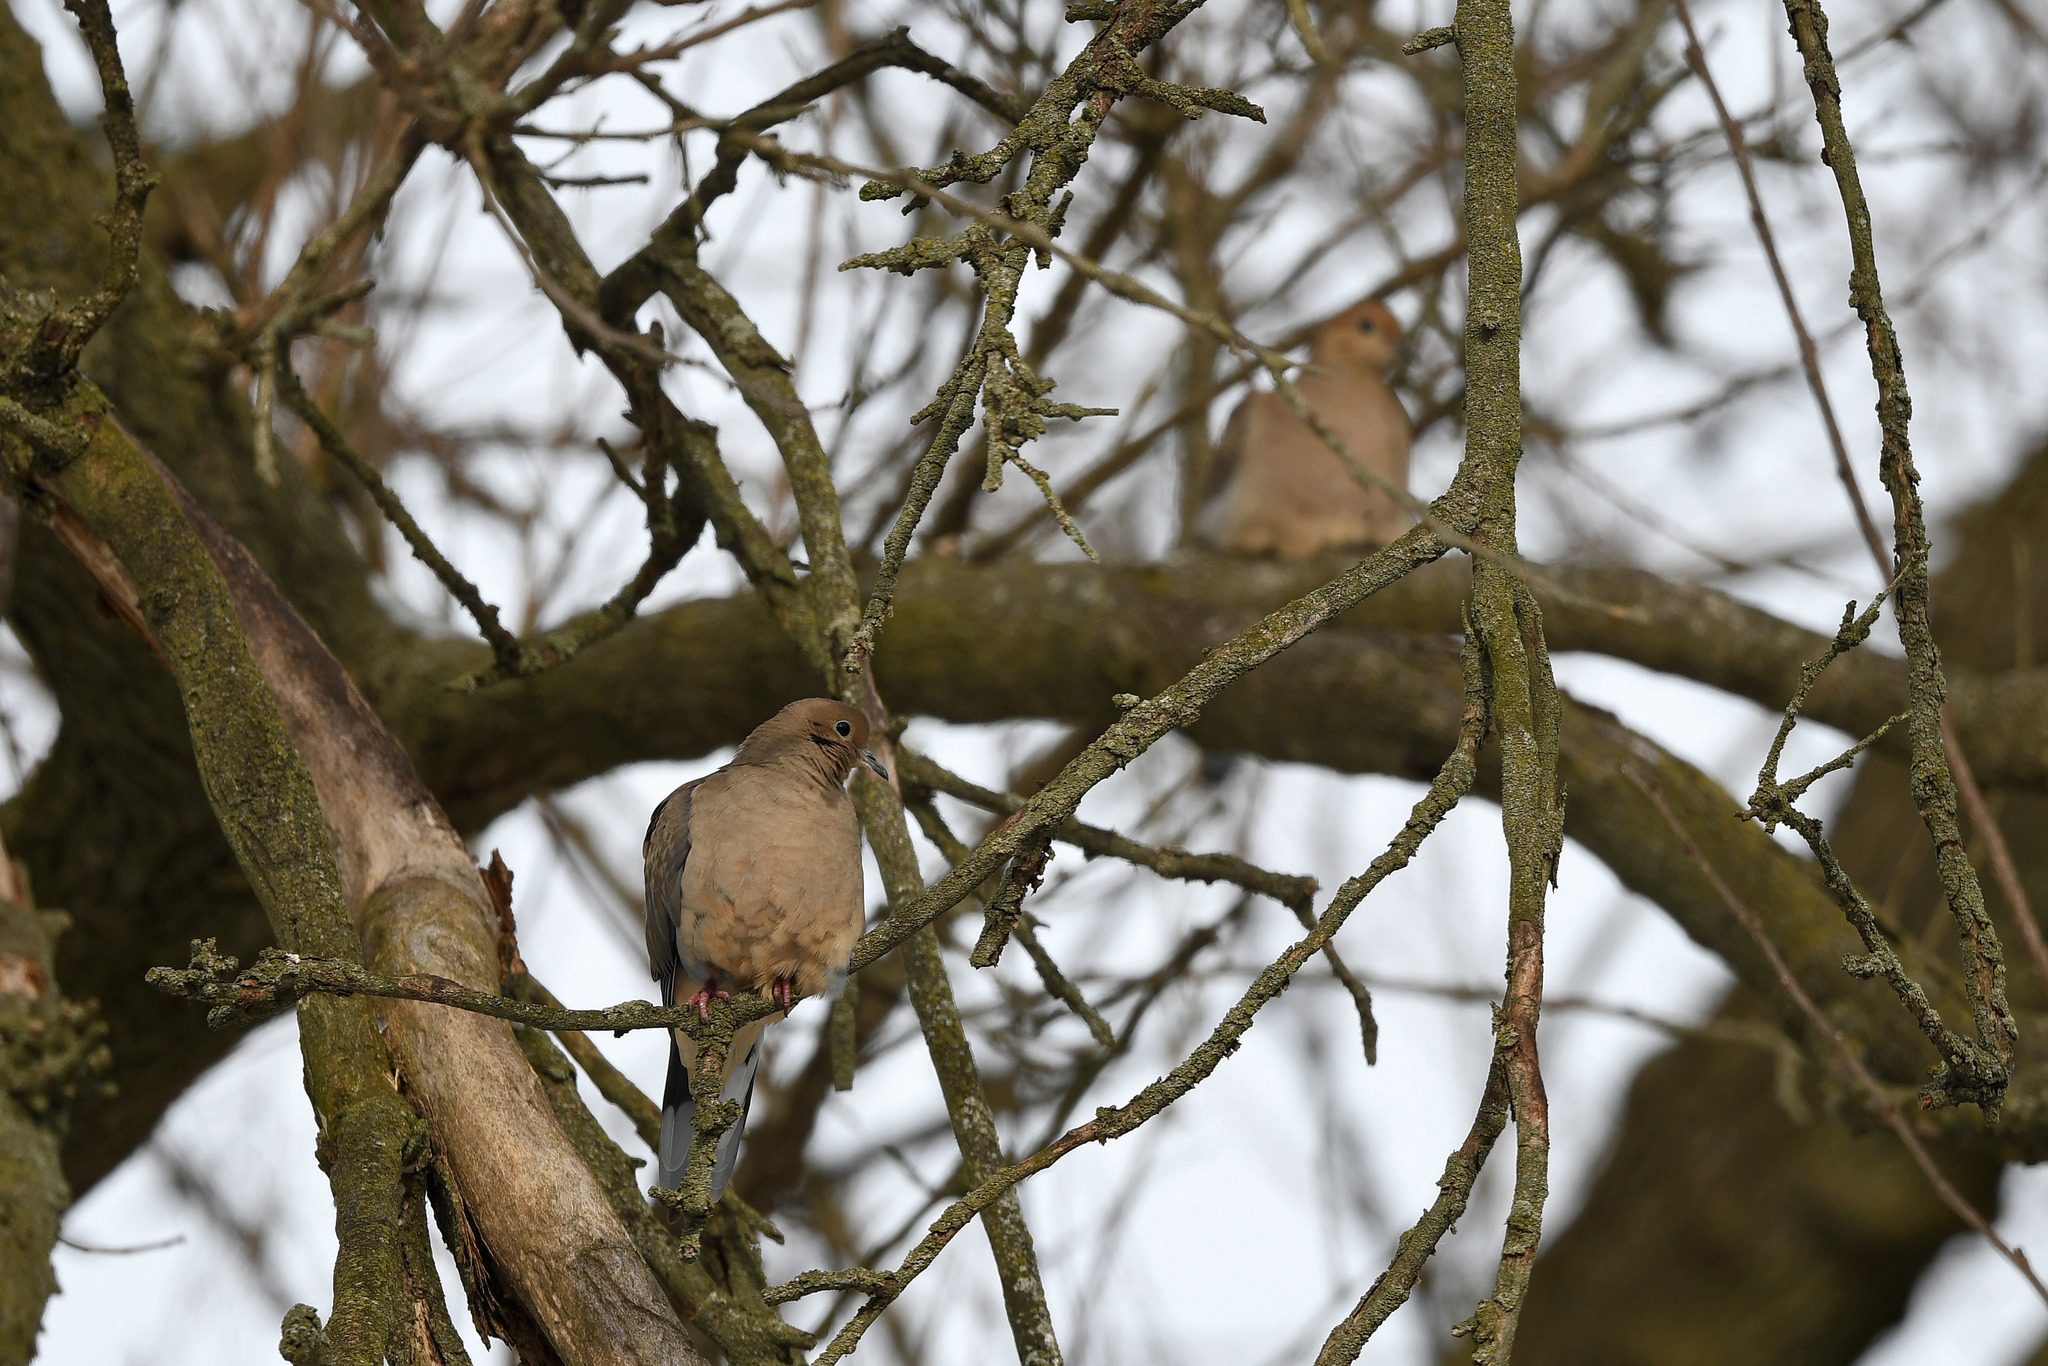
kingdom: Animalia
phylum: Chordata
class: Aves
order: Columbiformes
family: Columbidae
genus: Zenaida
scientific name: Zenaida macroura
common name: Mourning dove
